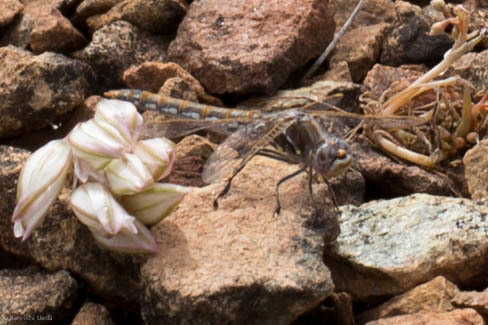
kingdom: Animalia
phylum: Arthropoda
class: Insecta
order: Odonata
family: Libellulidae
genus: Sympetrum
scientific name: Sympetrum corruptum
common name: Variegated meadowhawk
